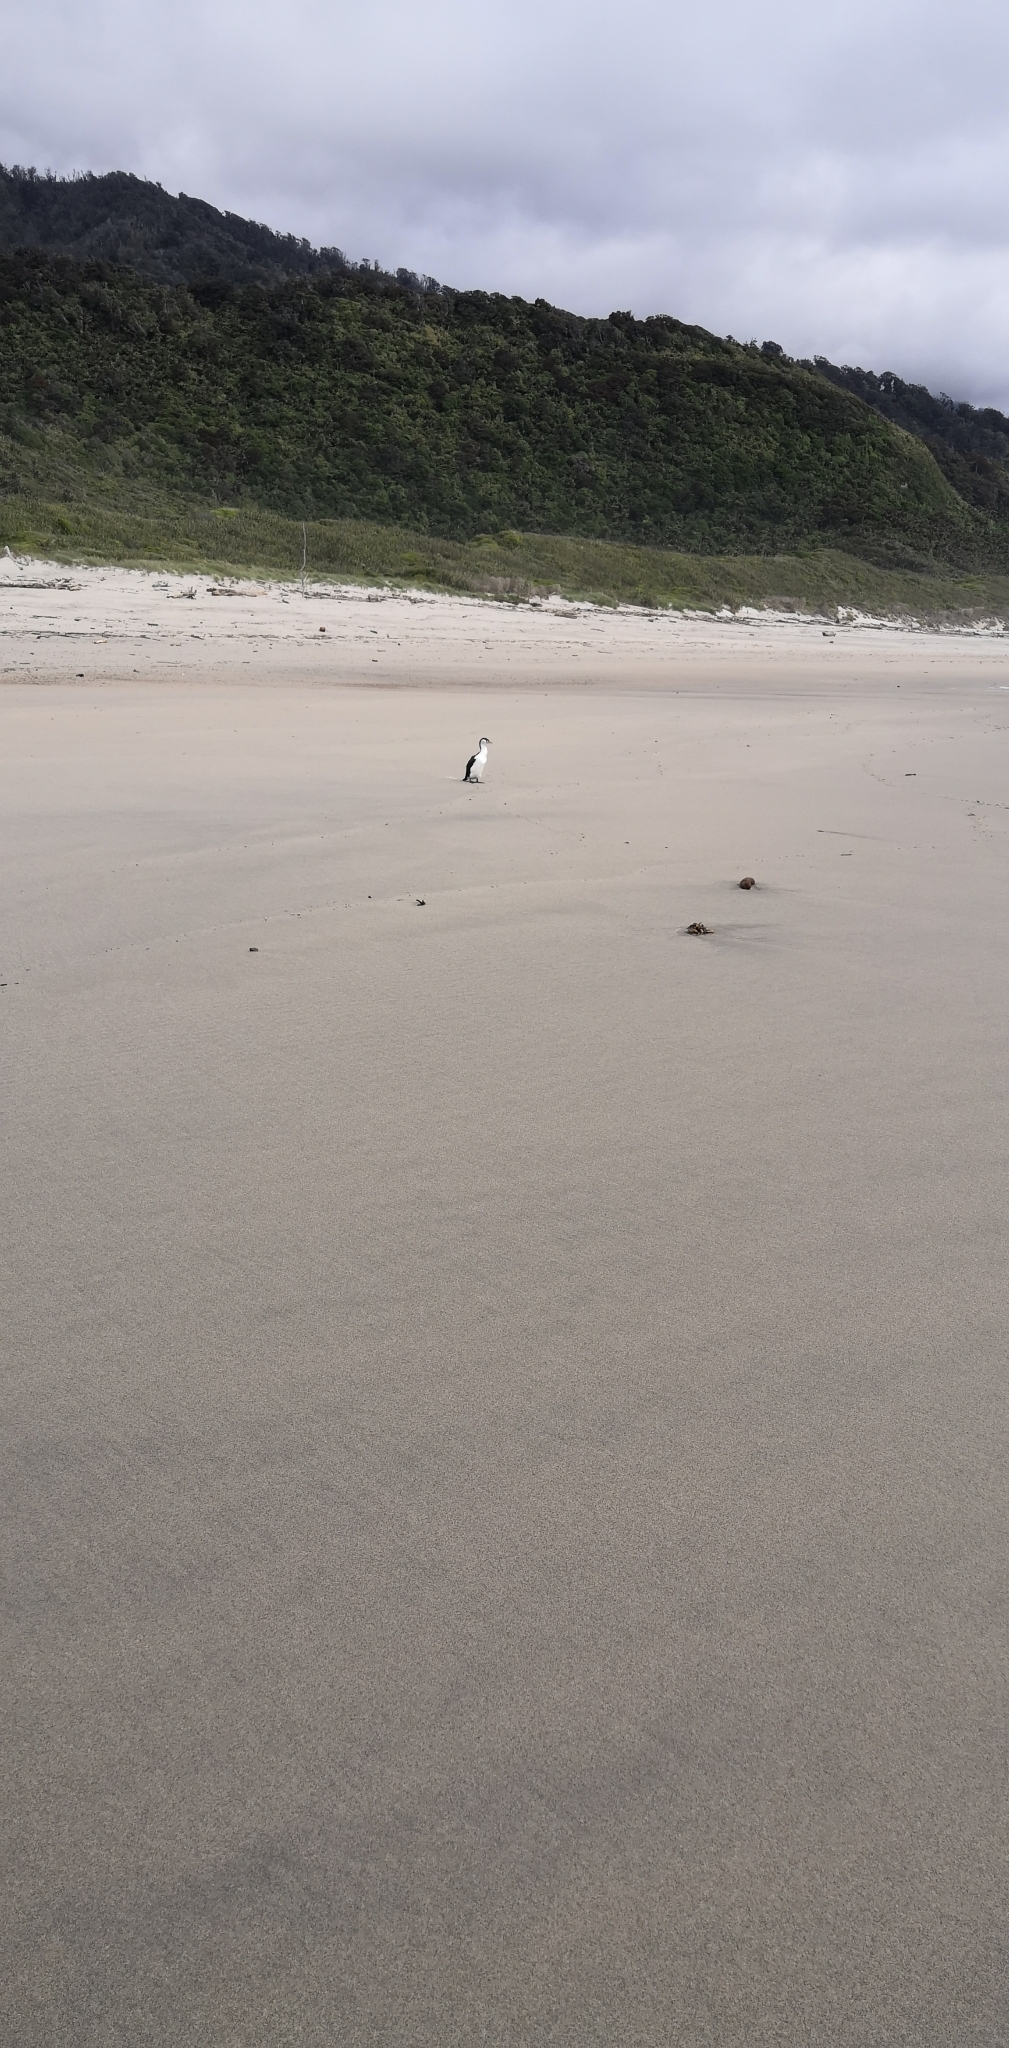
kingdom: Animalia
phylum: Chordata
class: Aves
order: Suliformes
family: Phalacrocoracidae
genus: Phalacrocorax
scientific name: Phalacrocorax varius
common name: Pied cormorant
